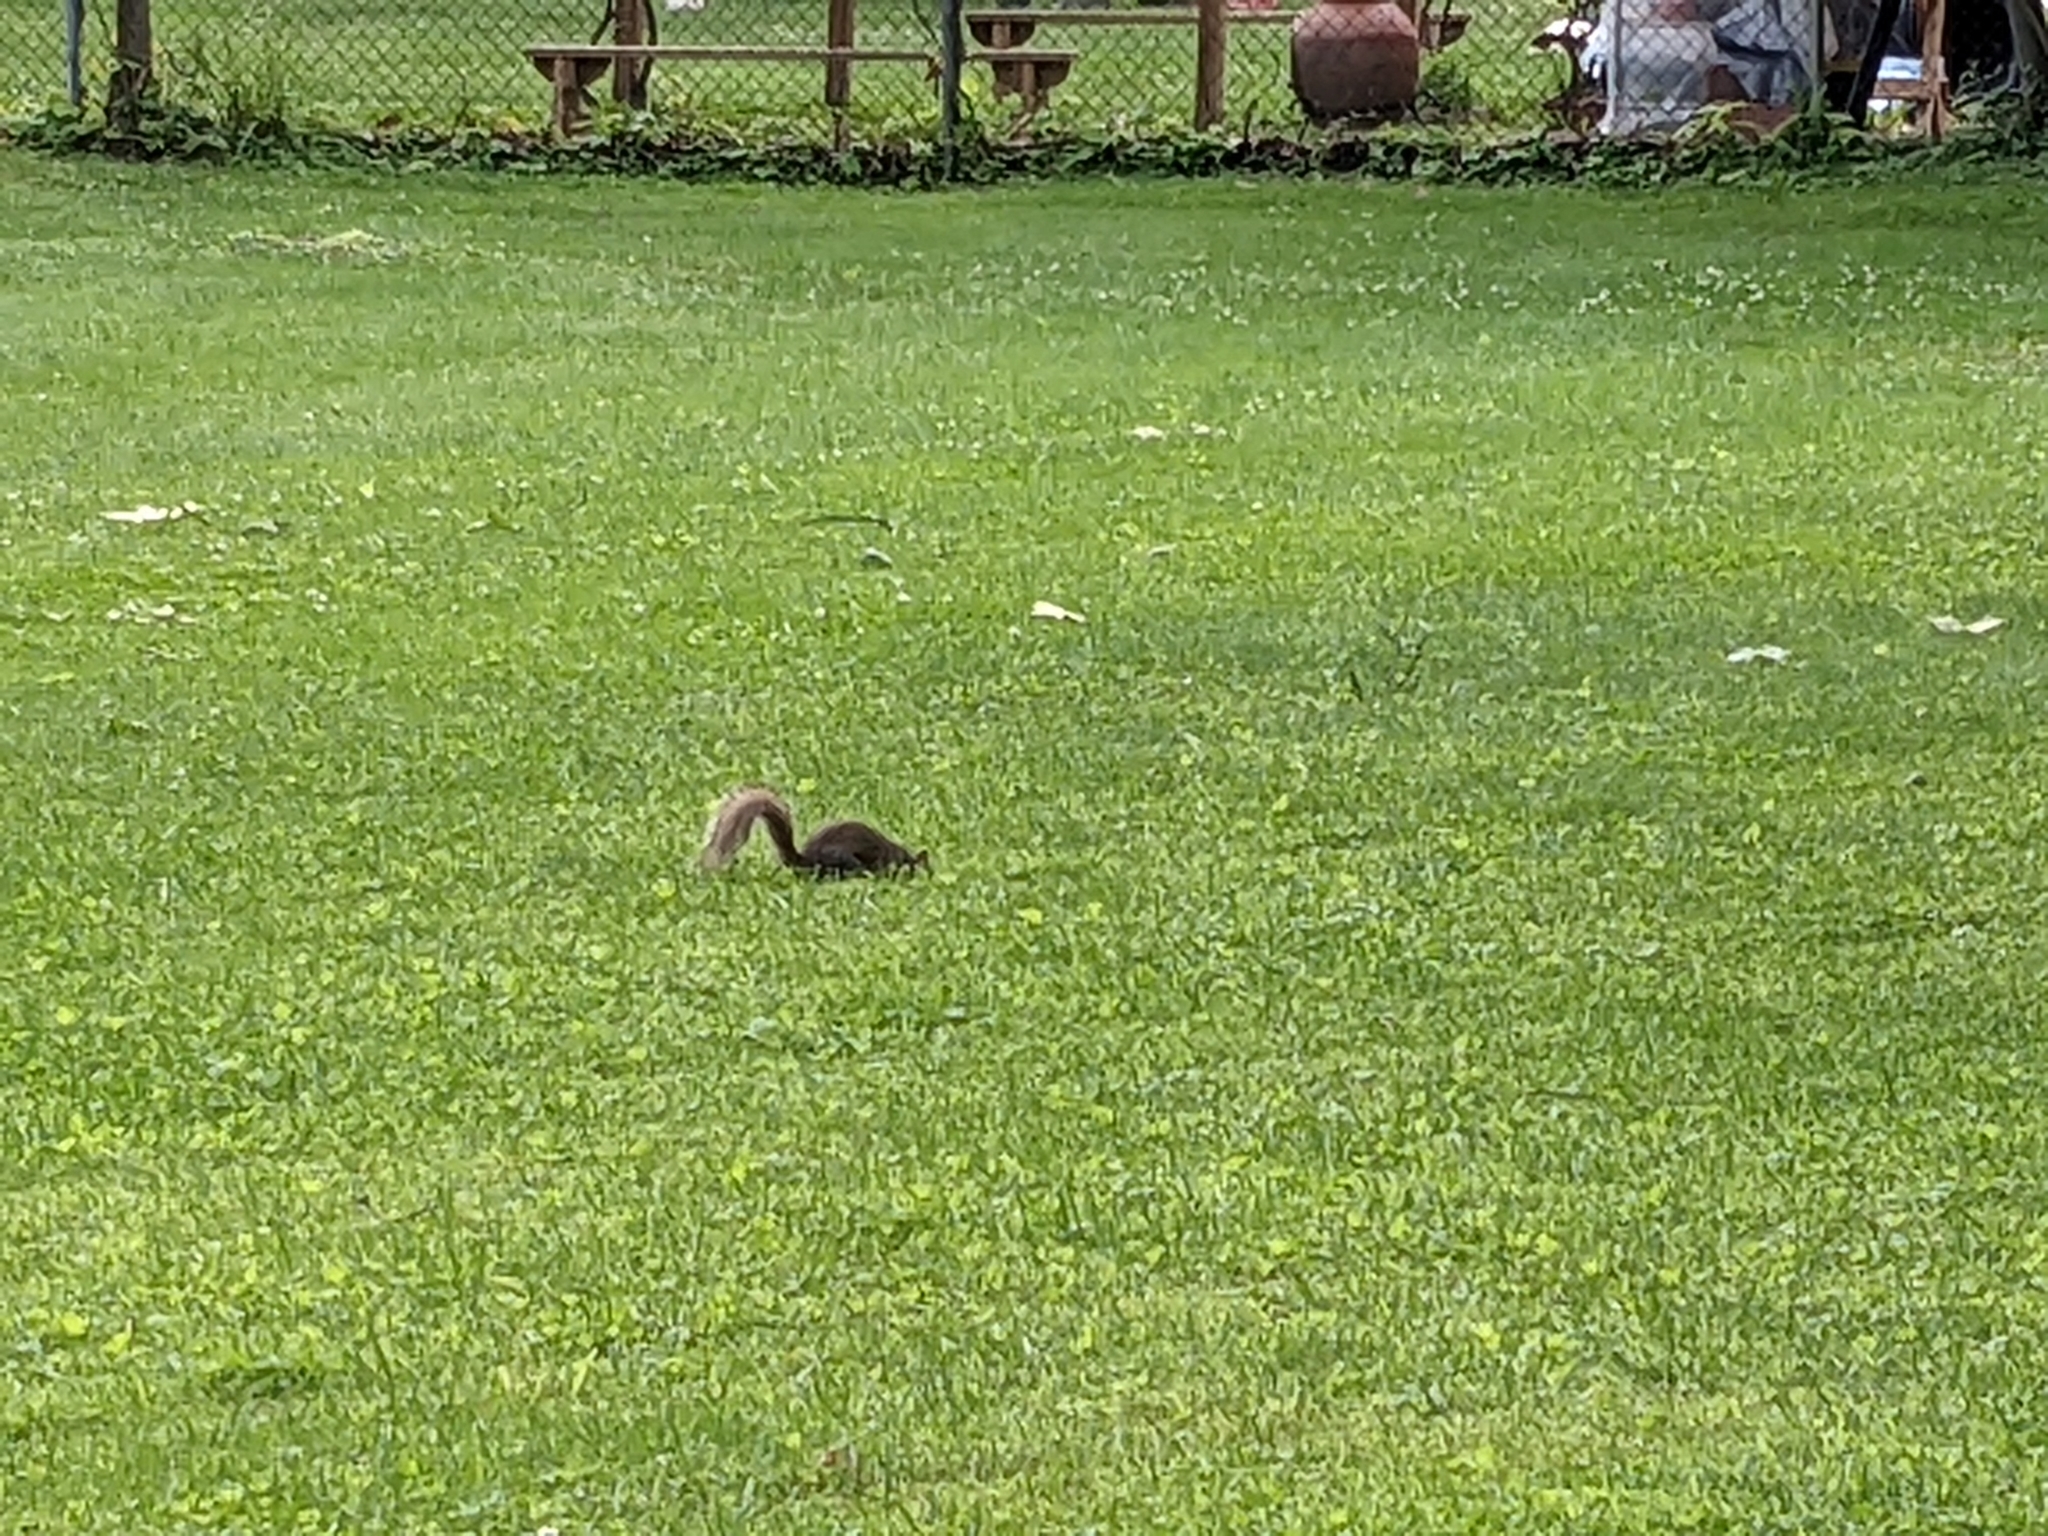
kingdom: Animalia
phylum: Chordata
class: Mammalia
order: Rodentia
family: Sciuridae
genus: Sciurus
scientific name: Sciurus carolinensis
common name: Eastern gray squirrel
